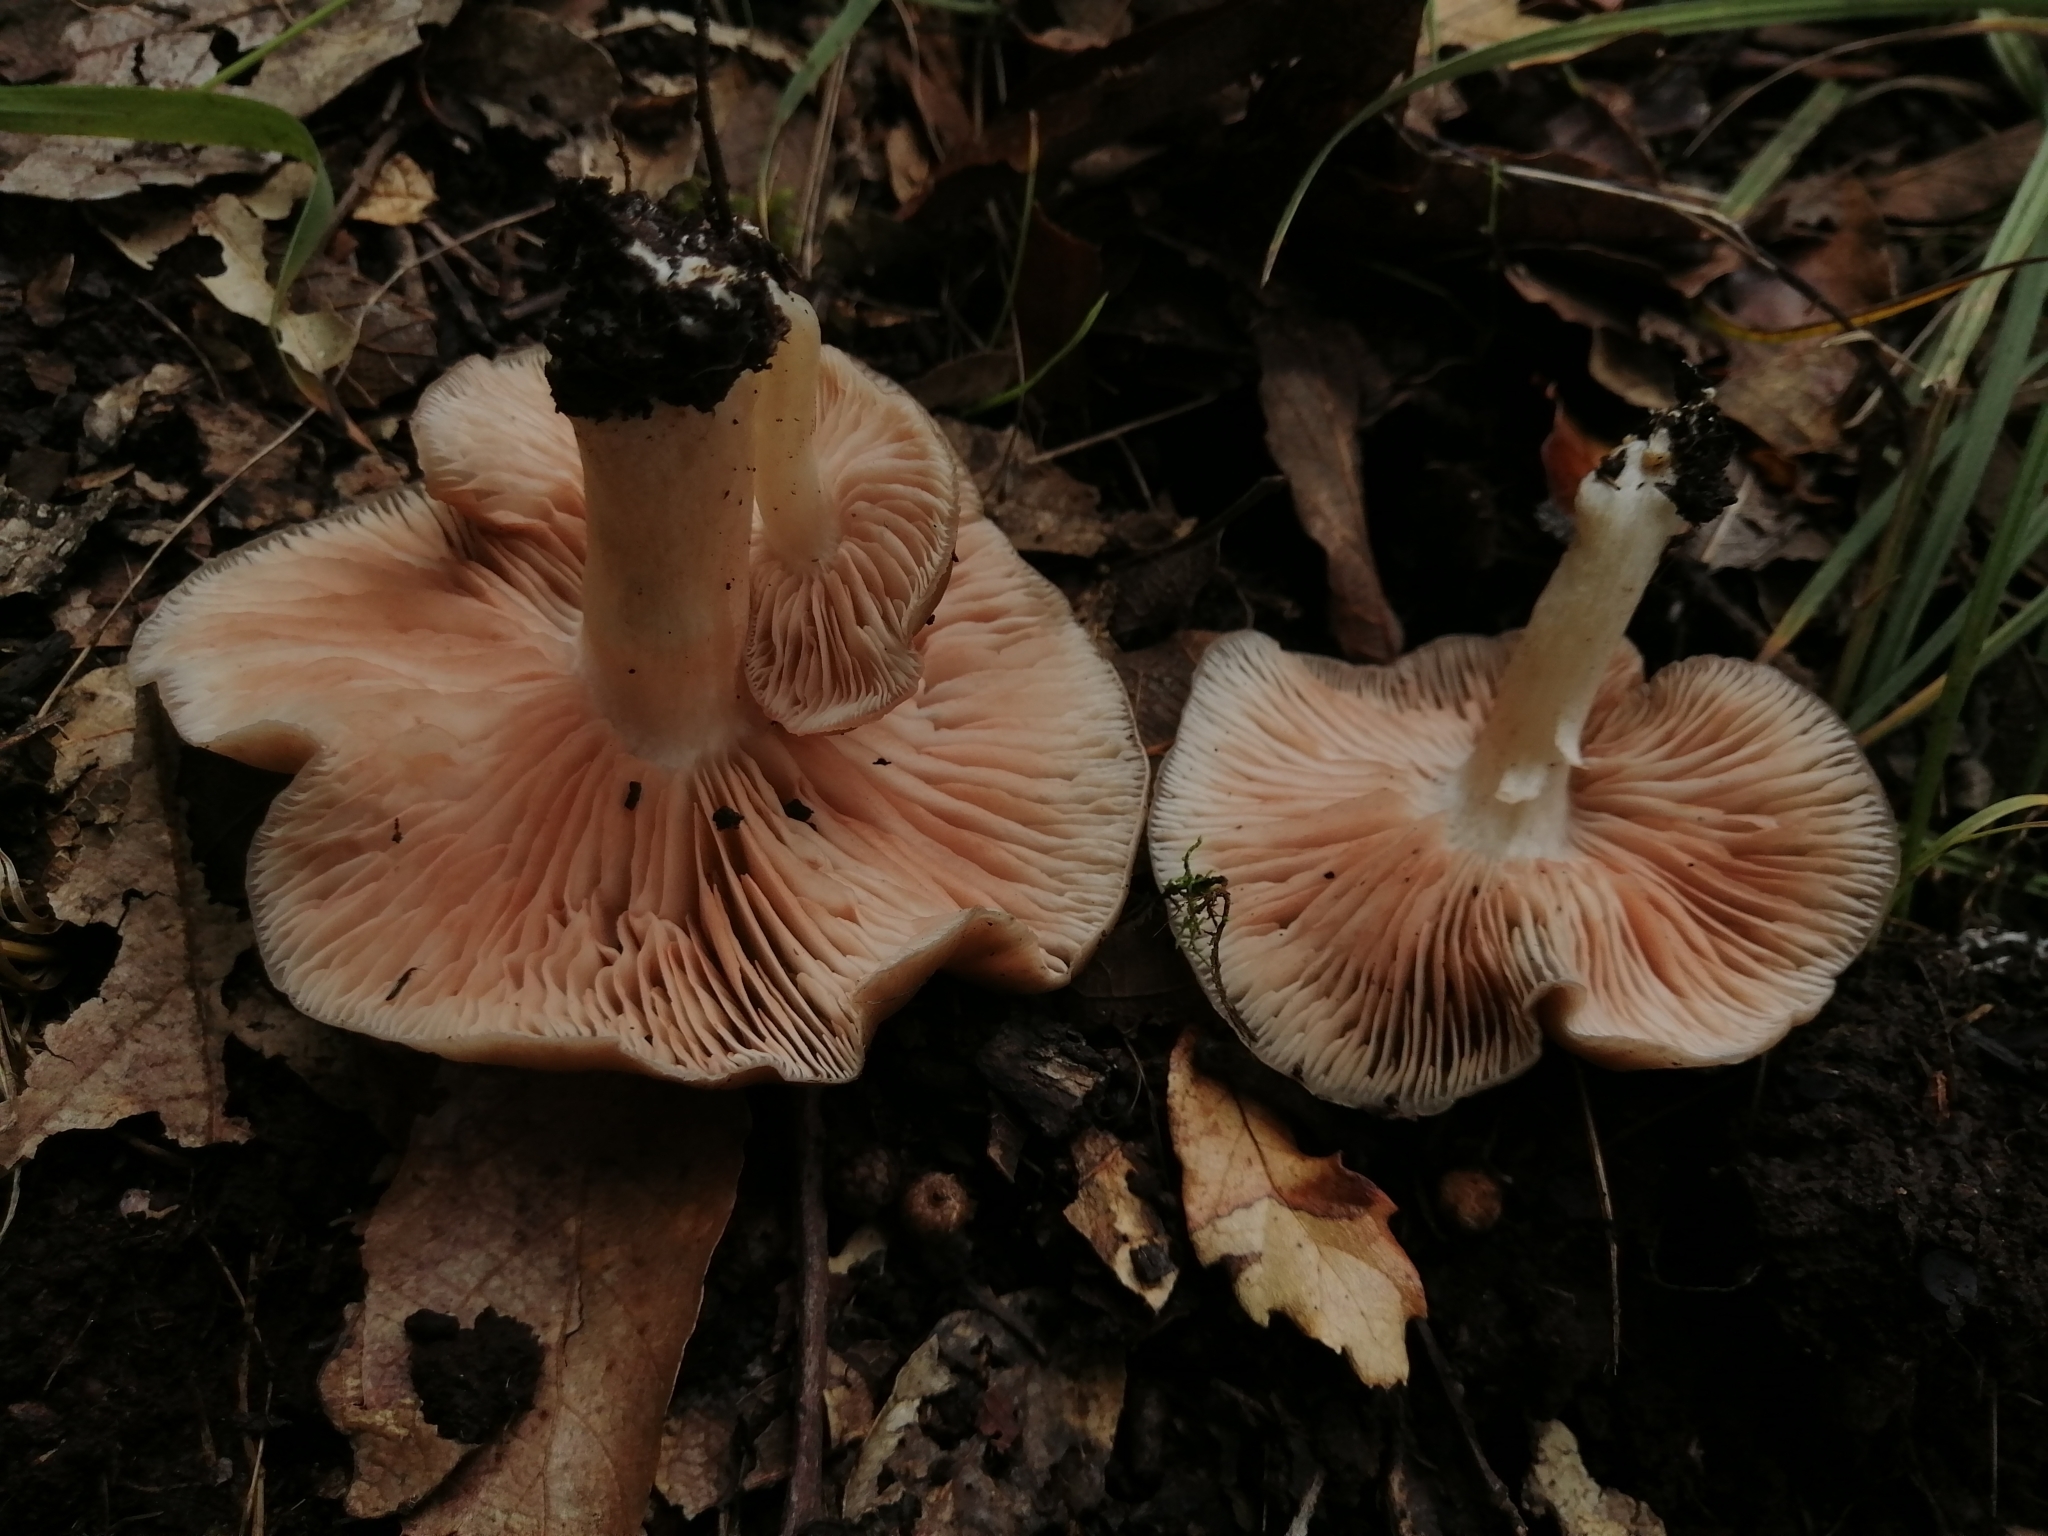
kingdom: Fungi
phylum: Basidiomycota
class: Agaricomycetes
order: Agaricales
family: Entolomataceae
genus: Entoloma
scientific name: Entoloma griseum
